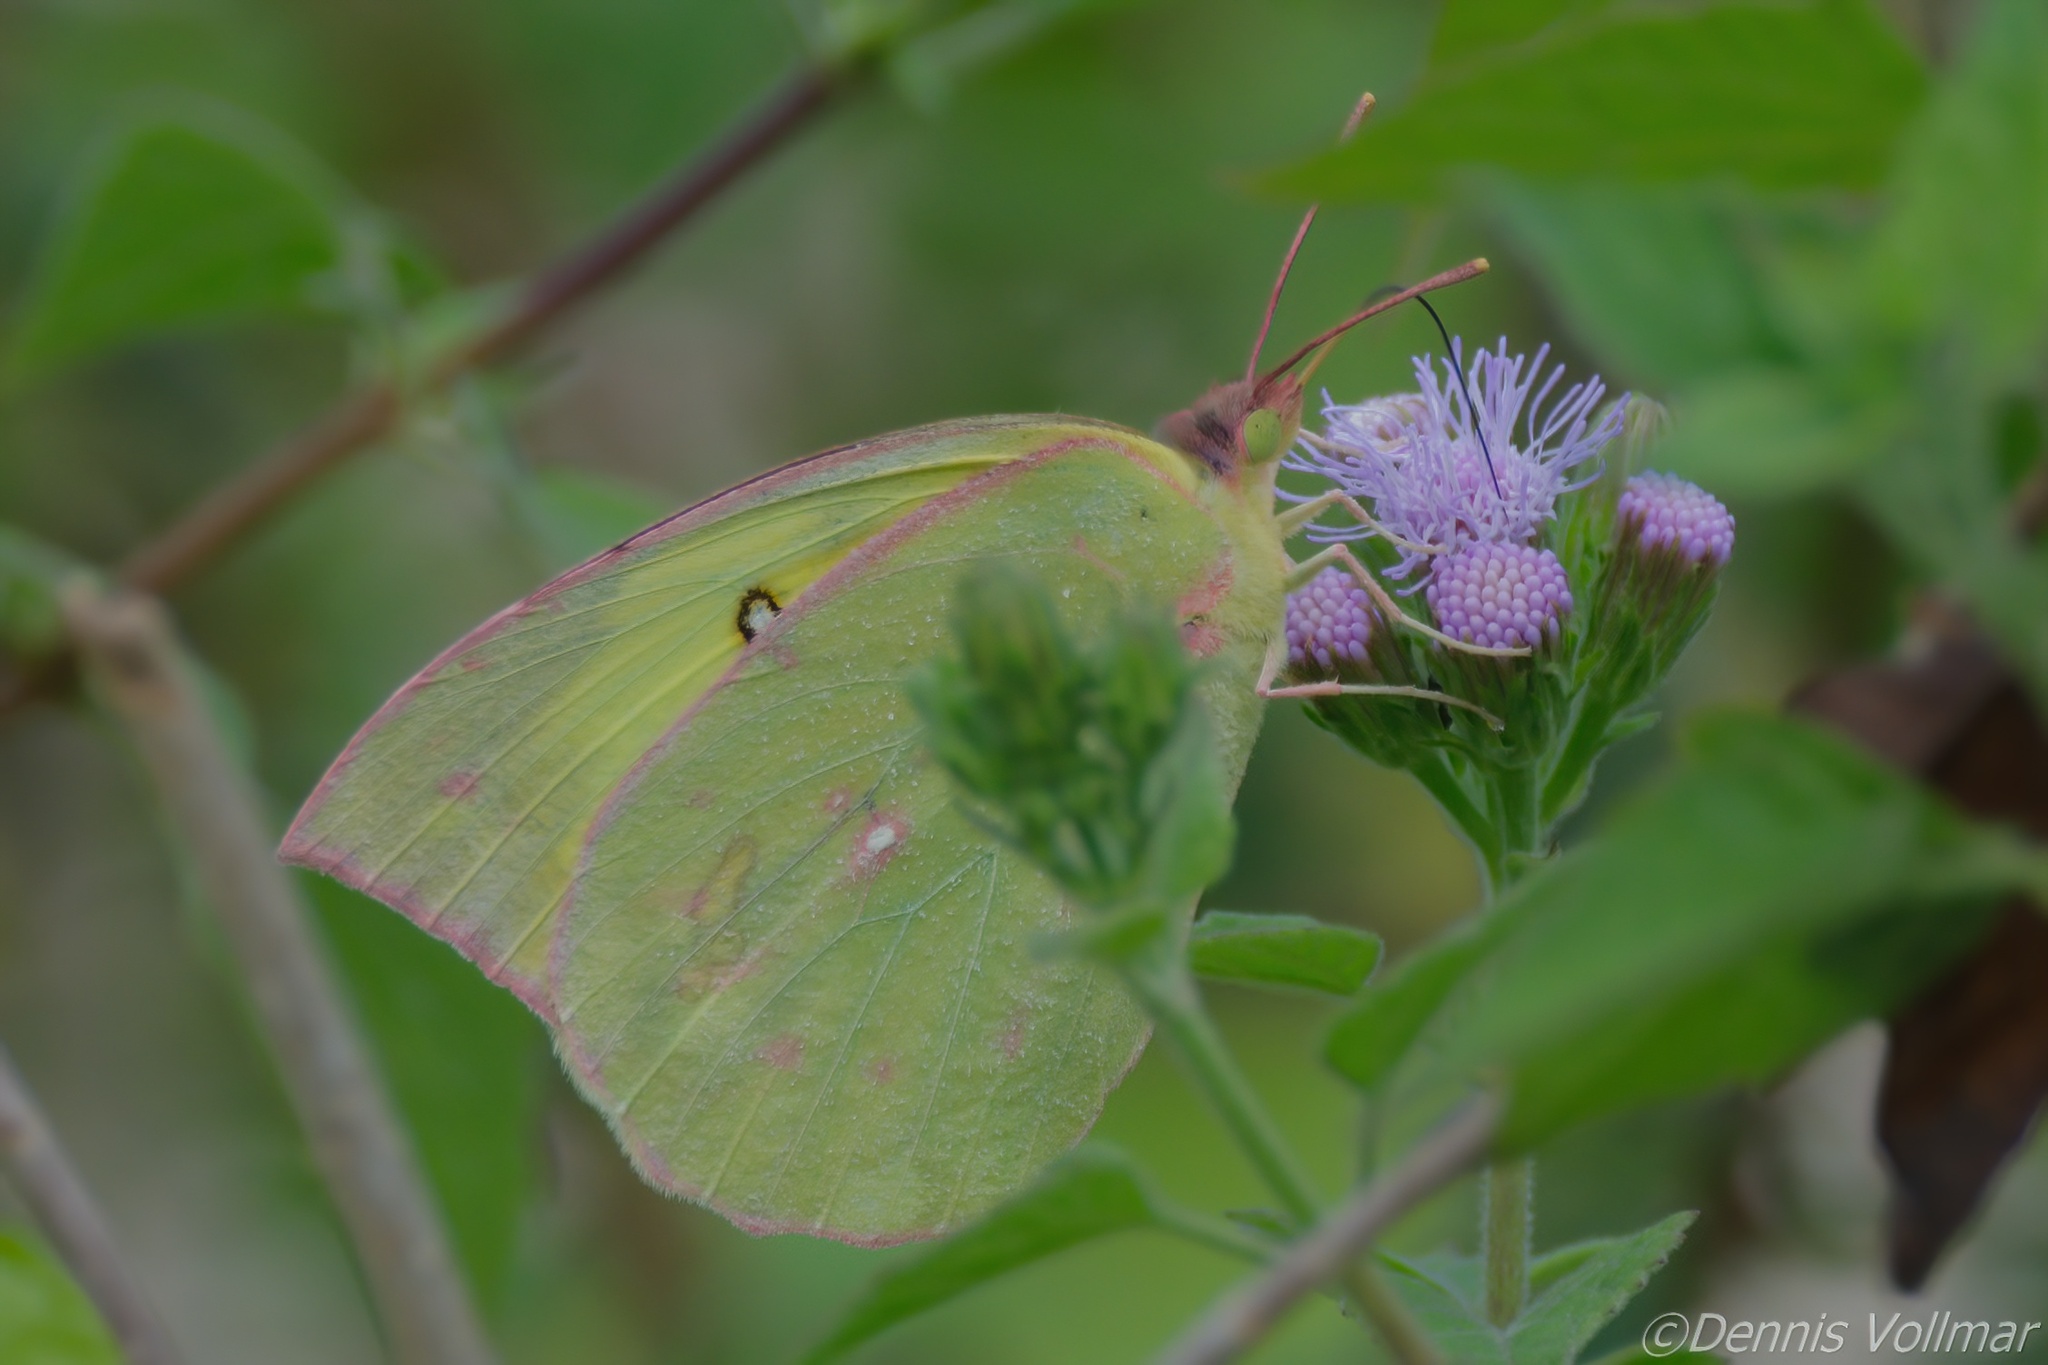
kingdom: Animalia
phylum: Arthropoda
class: Insecta
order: Lepidoptera
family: Pieridae
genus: Zerene
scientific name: Zerene cesonia
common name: Southern dogface
